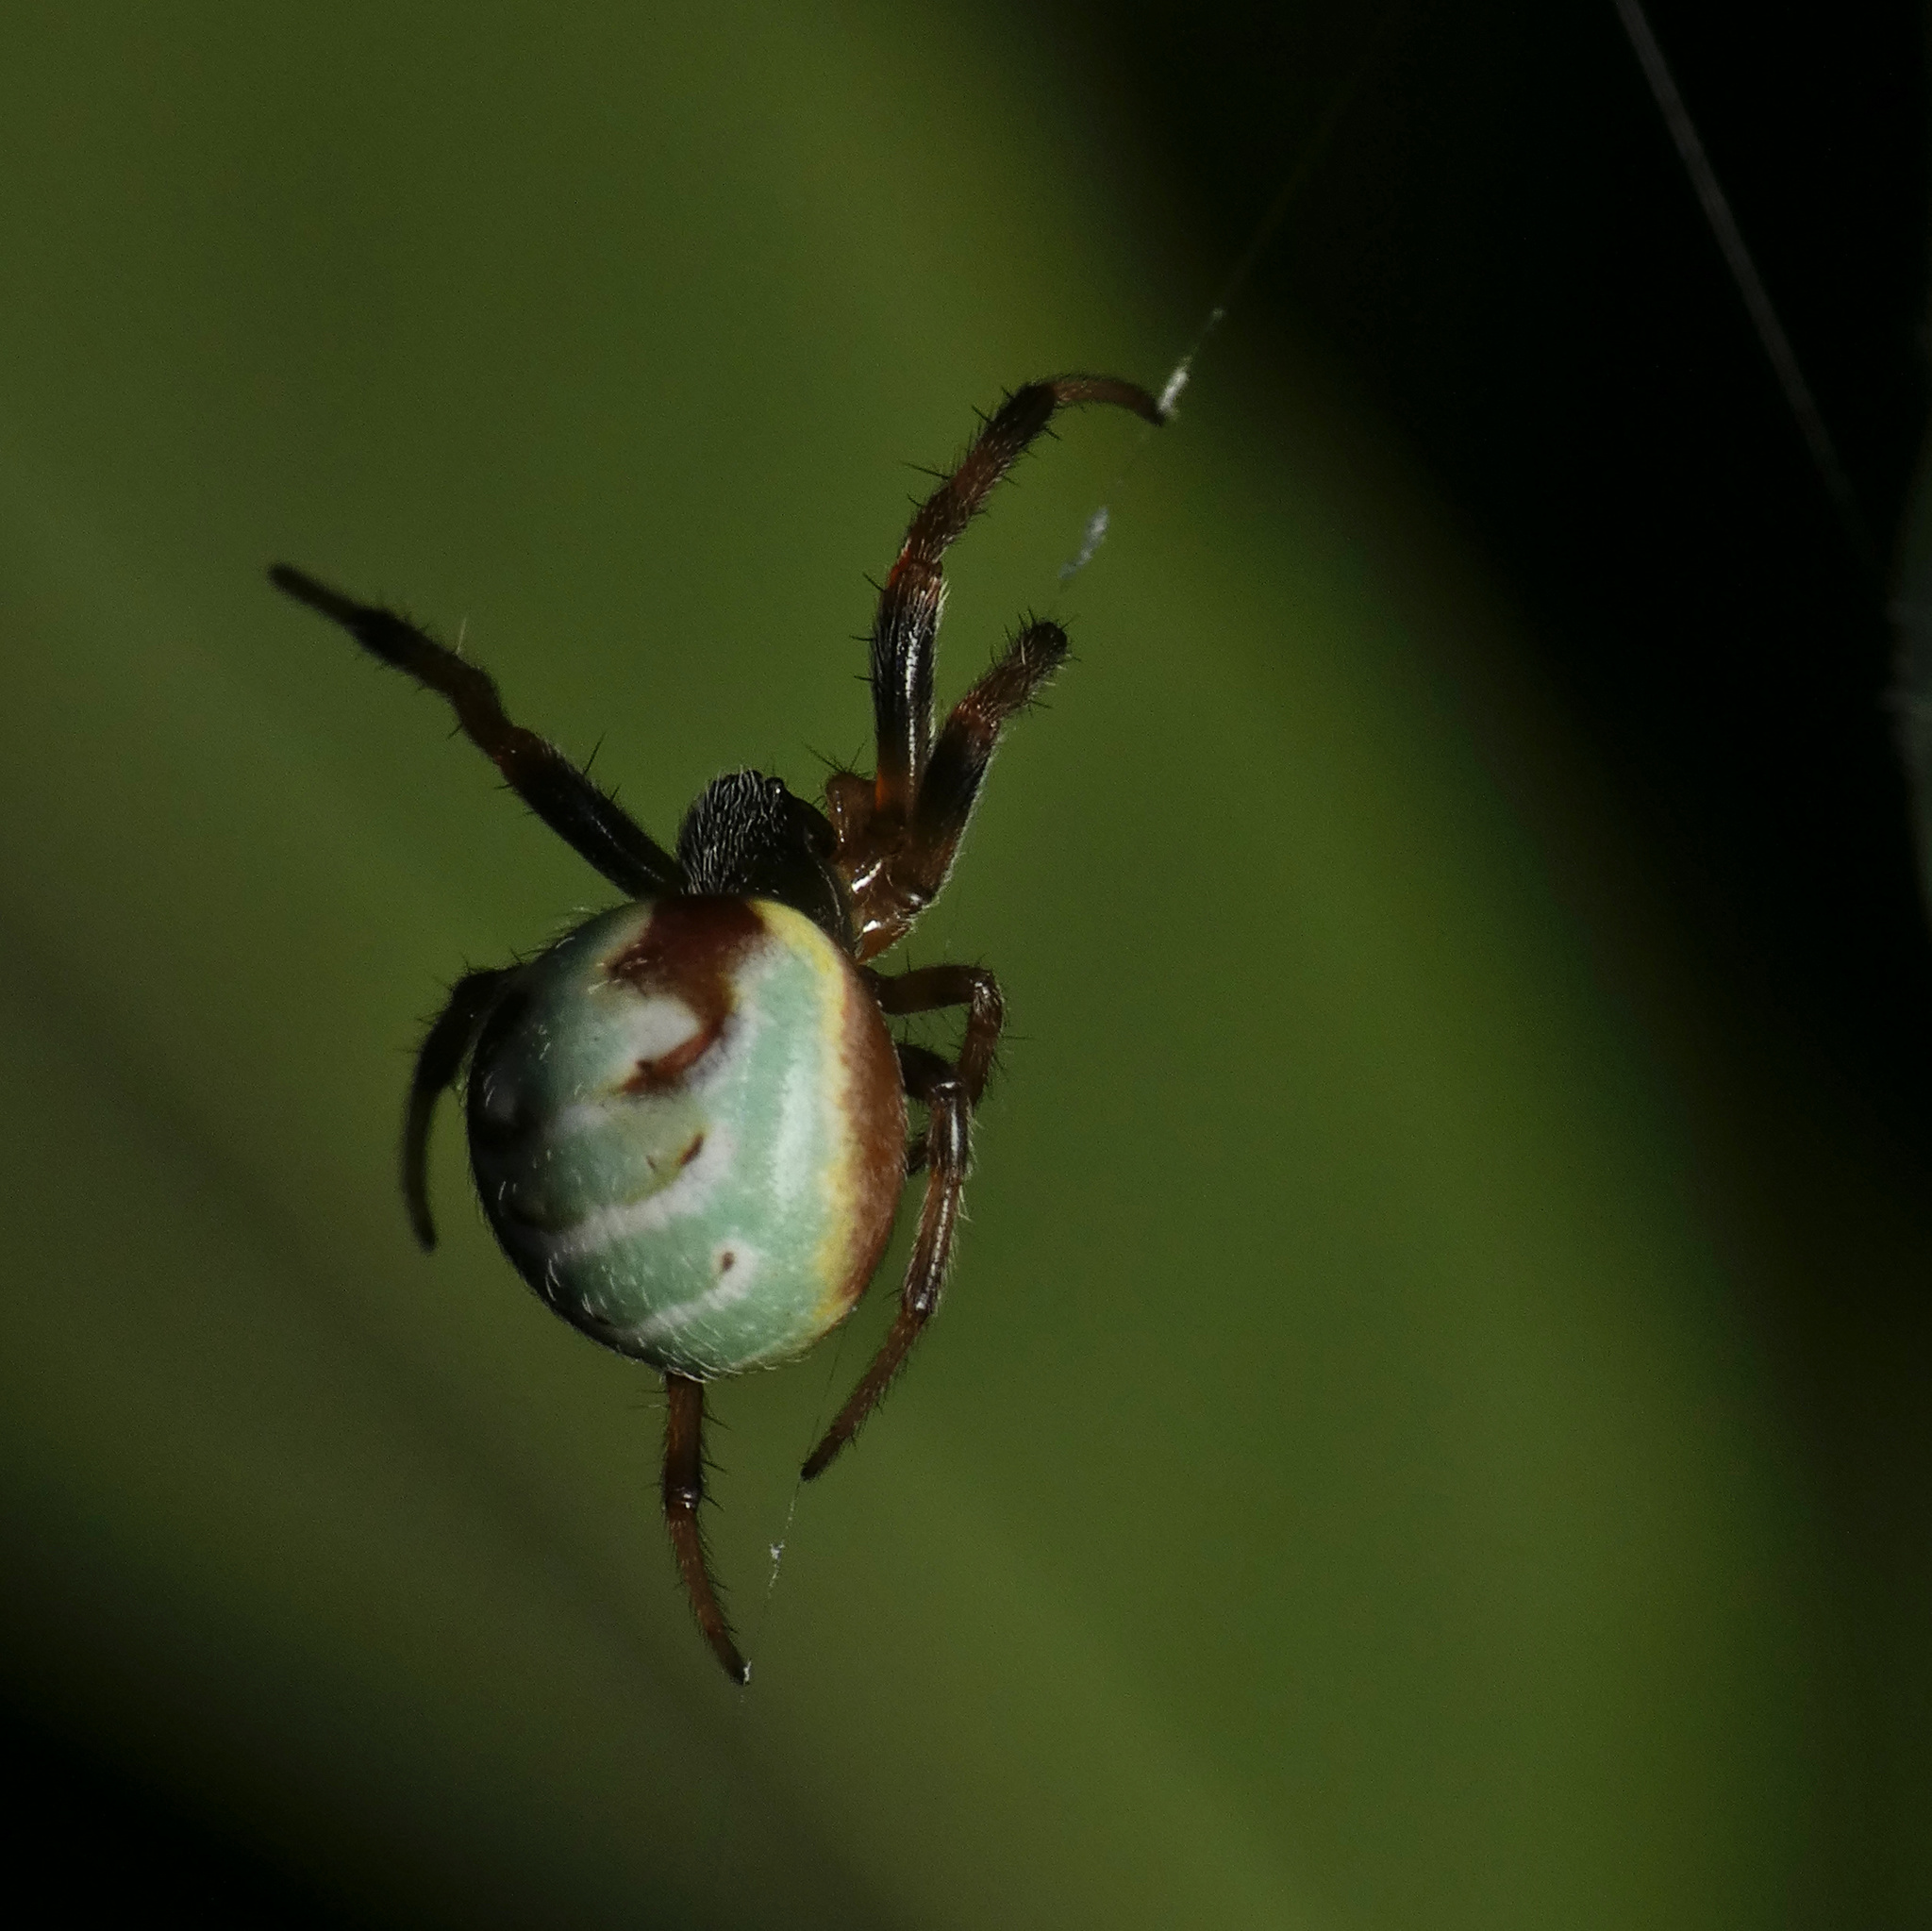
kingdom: Animalia
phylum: Arthropoda
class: Arachnida
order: Araneae
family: Araneidae
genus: Araneus
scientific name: Araneus apricus
